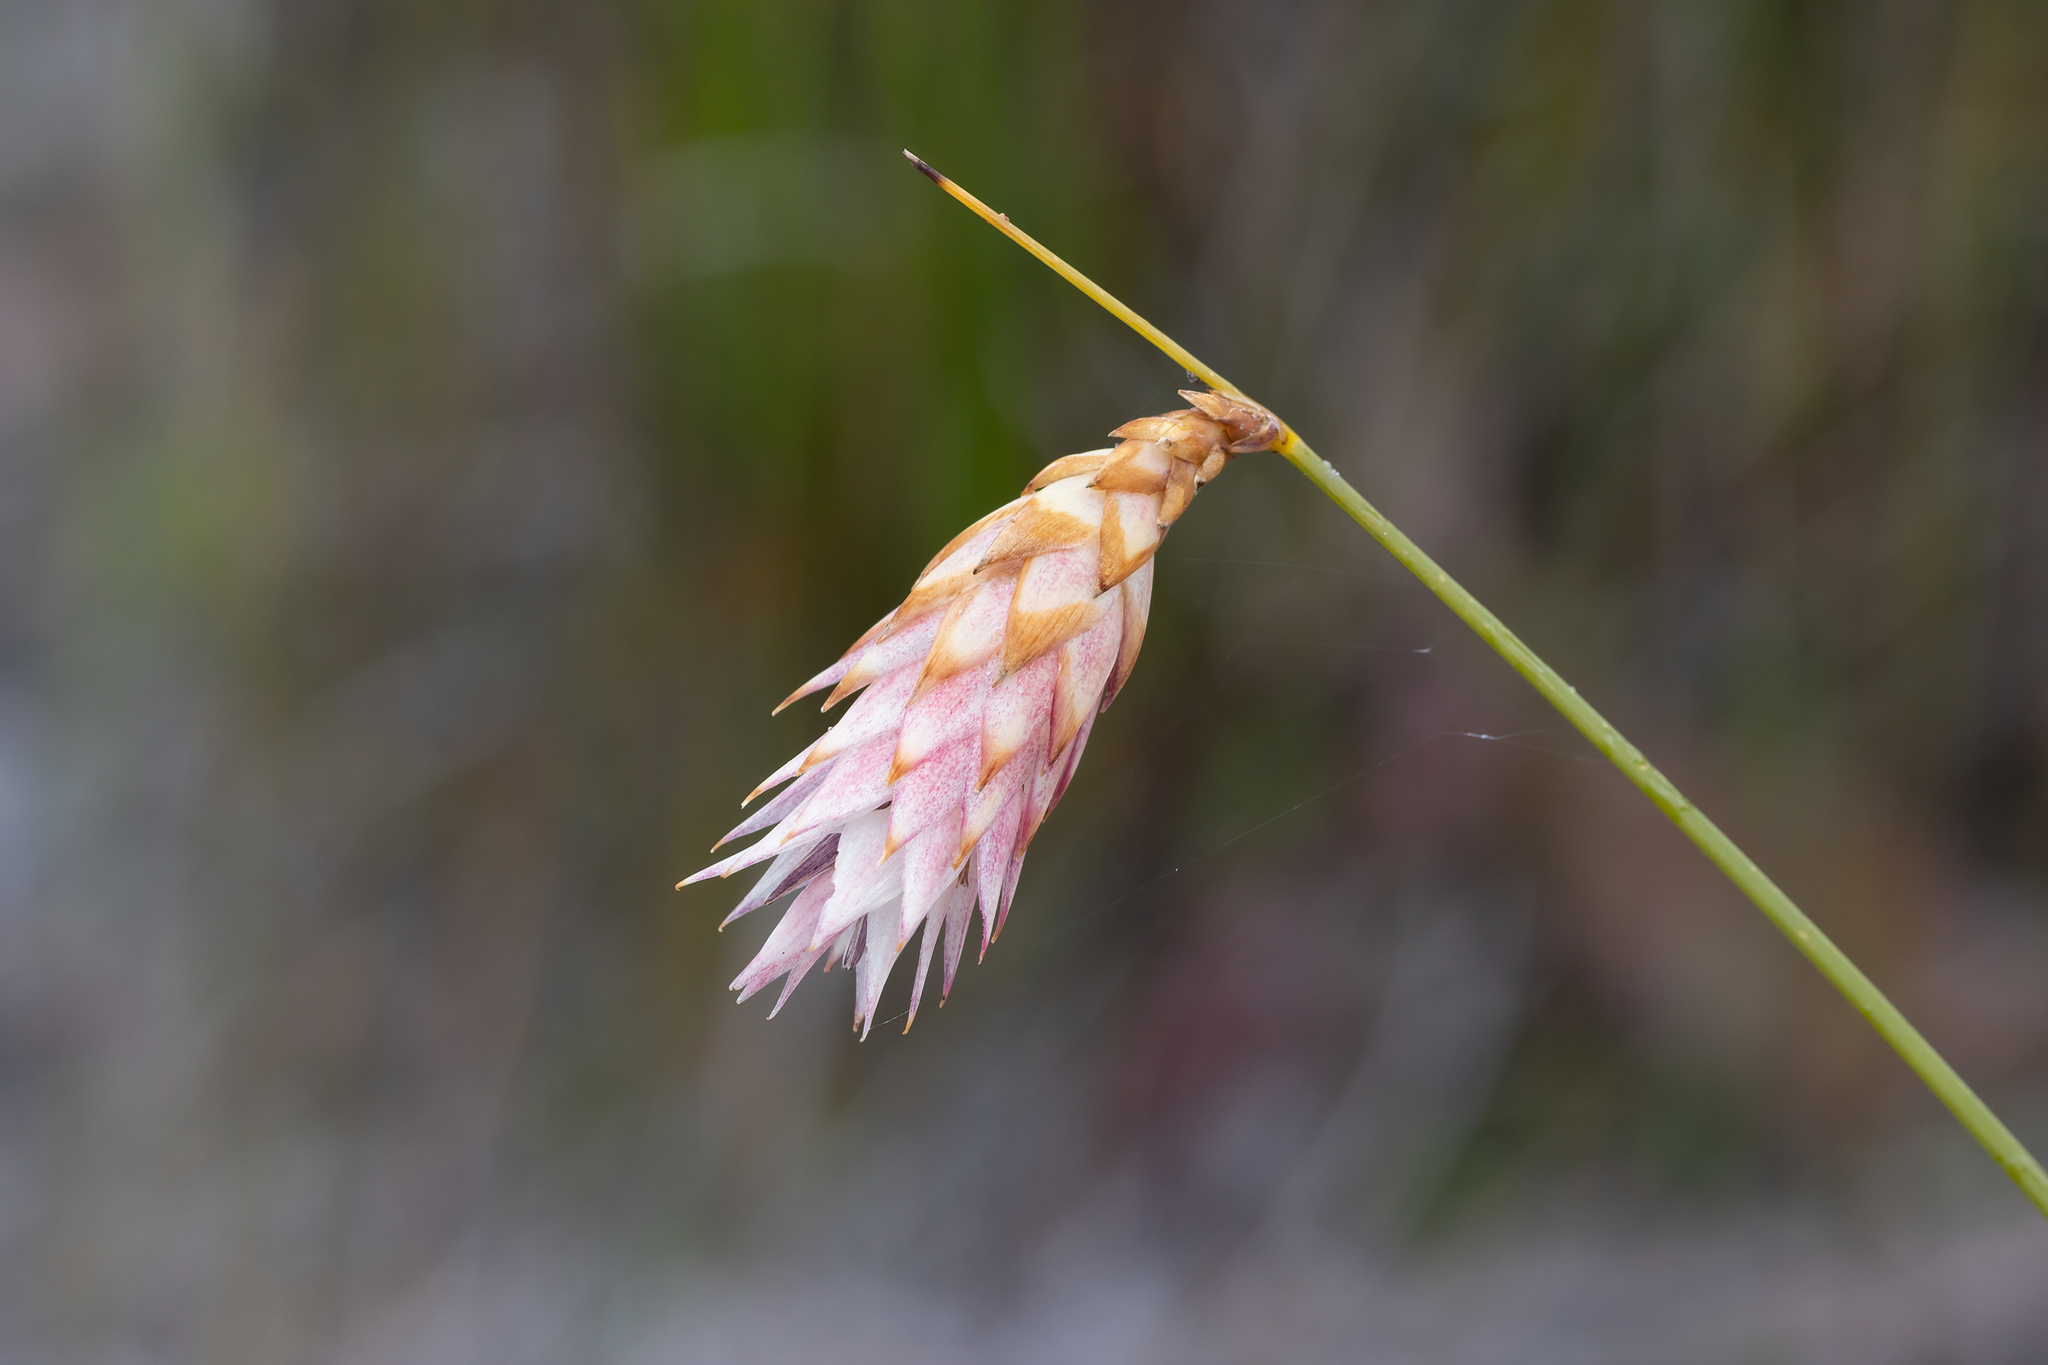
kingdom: Plantae
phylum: Tracheophyta
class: Liliopsida
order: Asparagales
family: Asphodelaceae
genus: Johnsonia
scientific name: Johnsonia lupulina
